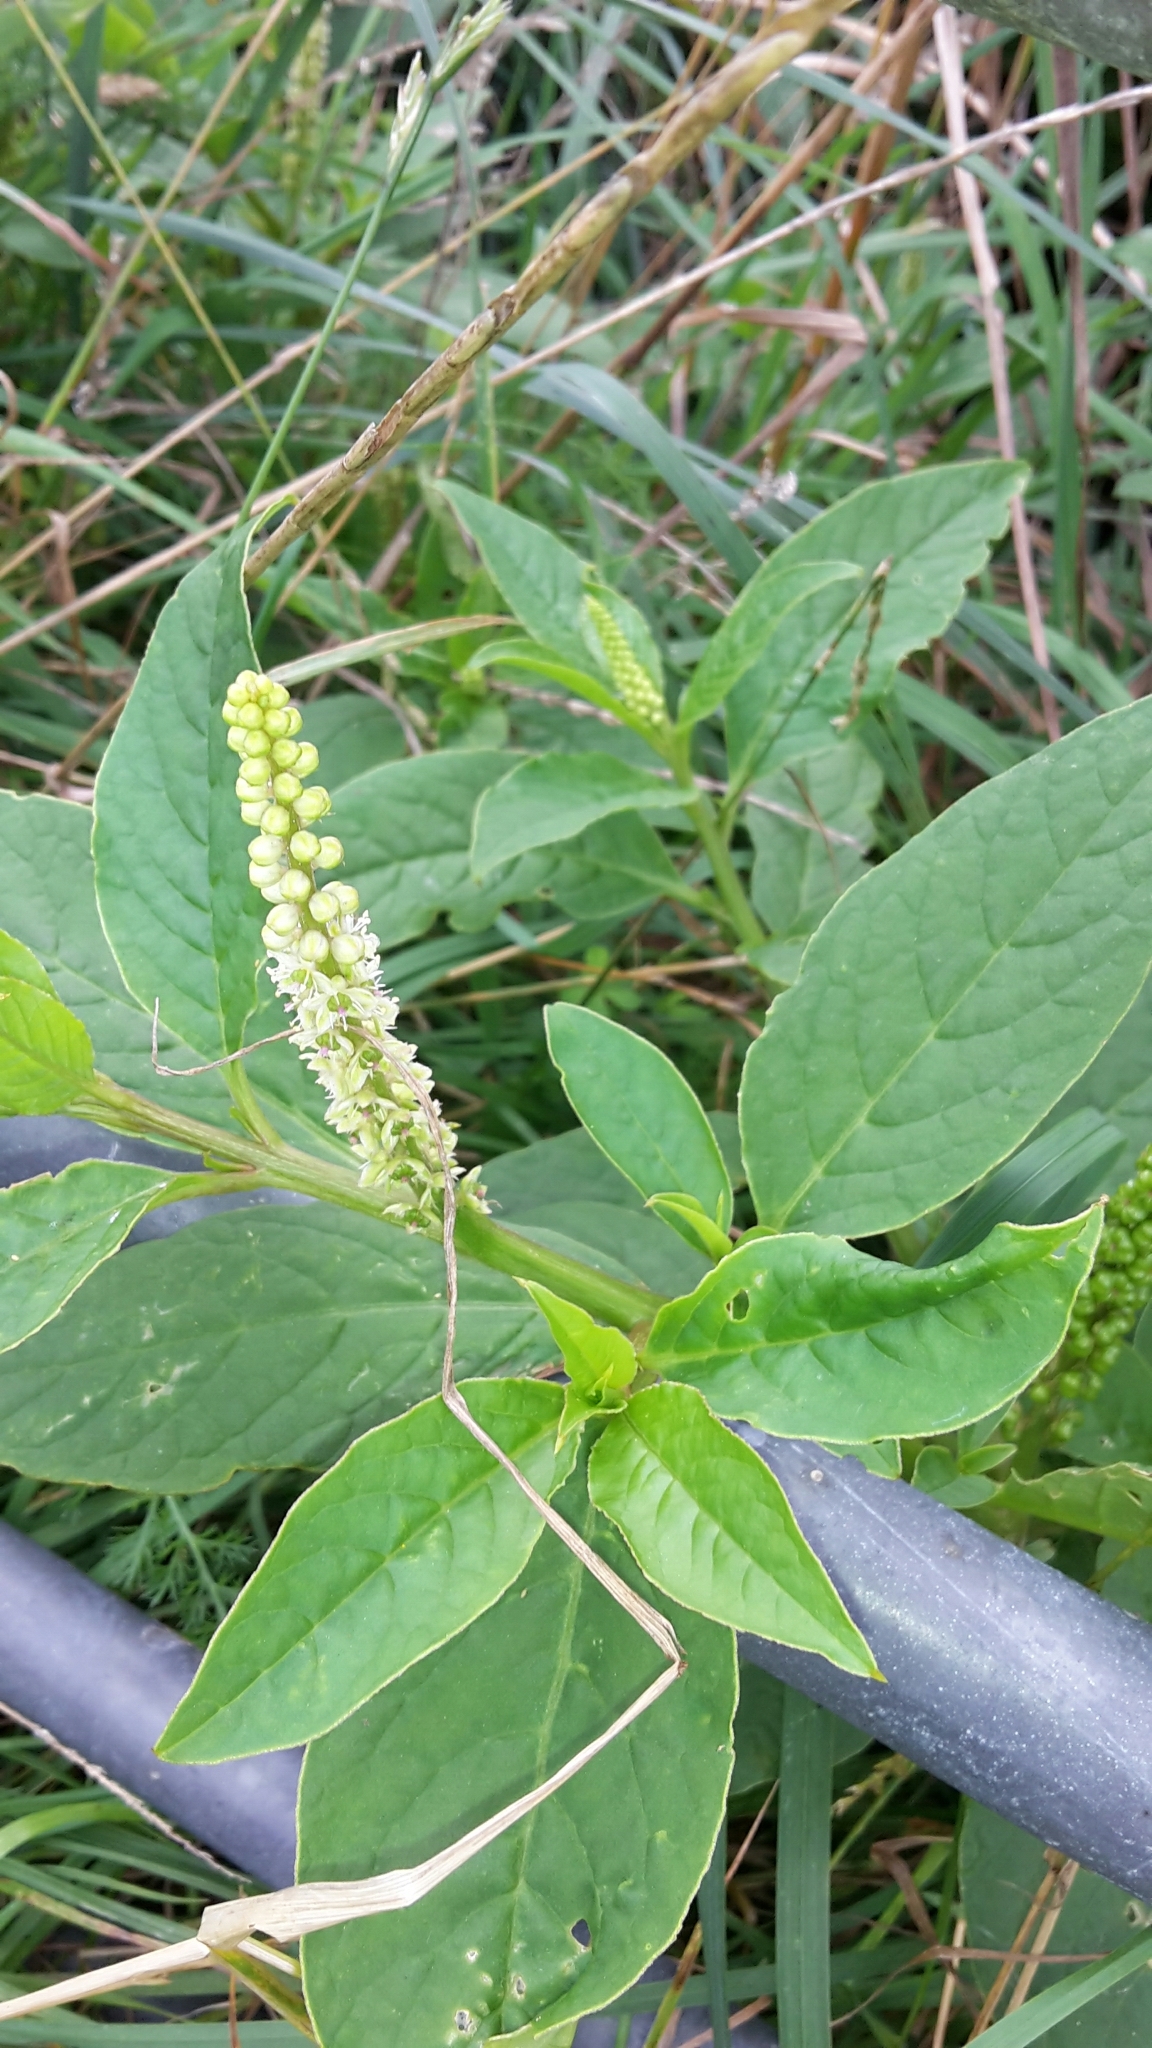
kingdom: Plantae
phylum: Tracheophyta
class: Magnoliopsida
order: Caryophyllales
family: Phytolaccaceae
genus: Phytolacca
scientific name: Phytolacca icosandra
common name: Button pokeweed
